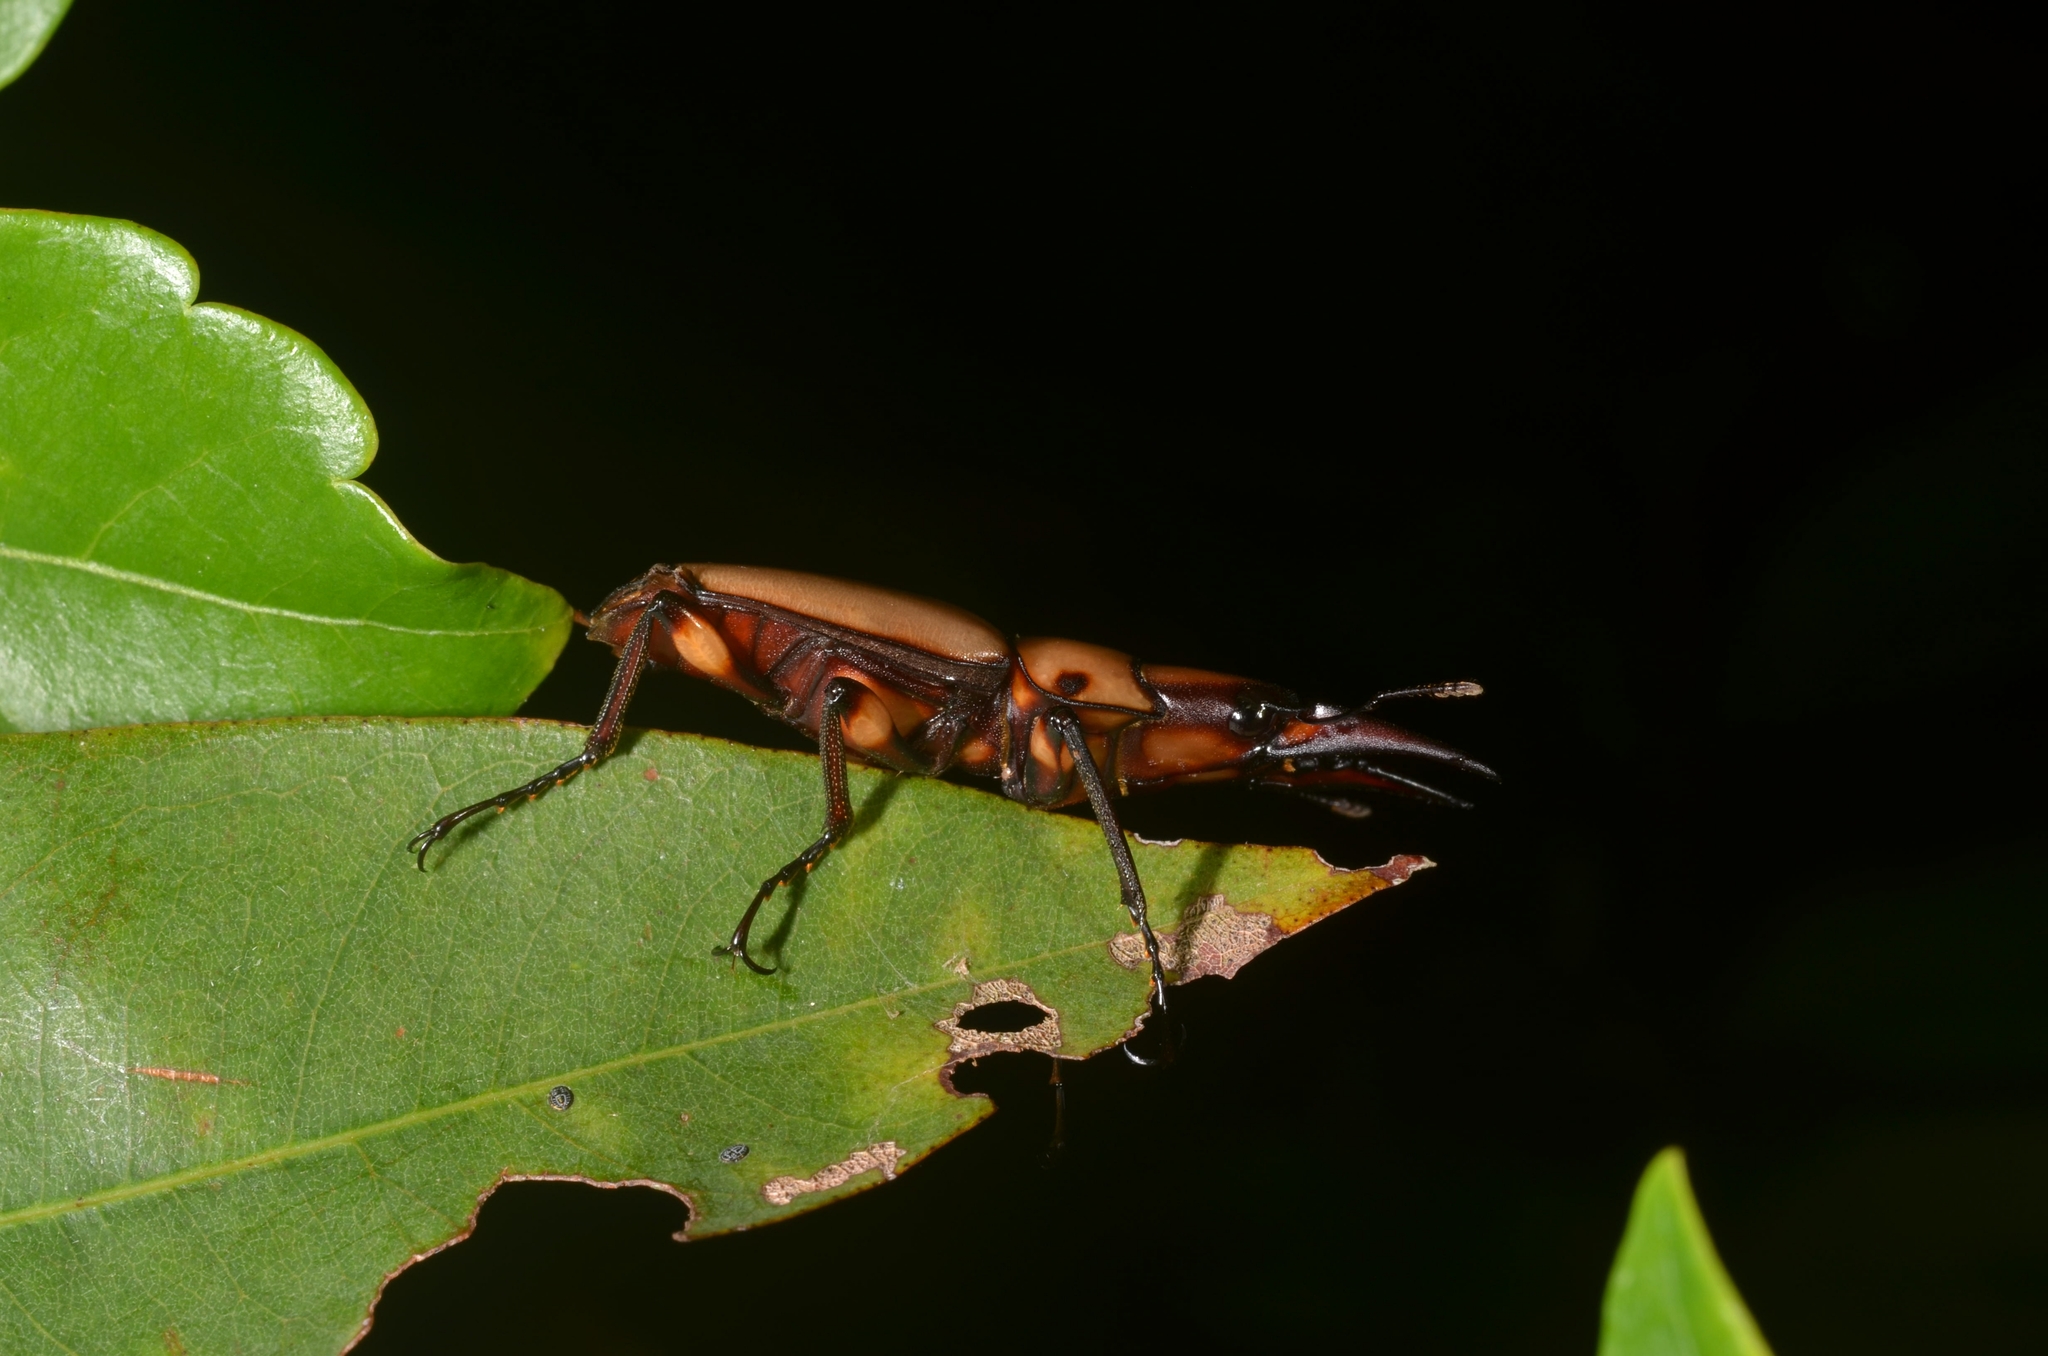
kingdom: Animalia
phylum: Arthropoda
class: Insecta
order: Coleoptera
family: Lucanidae
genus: Prosopocoilus
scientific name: Prosopocoilus suturalis
